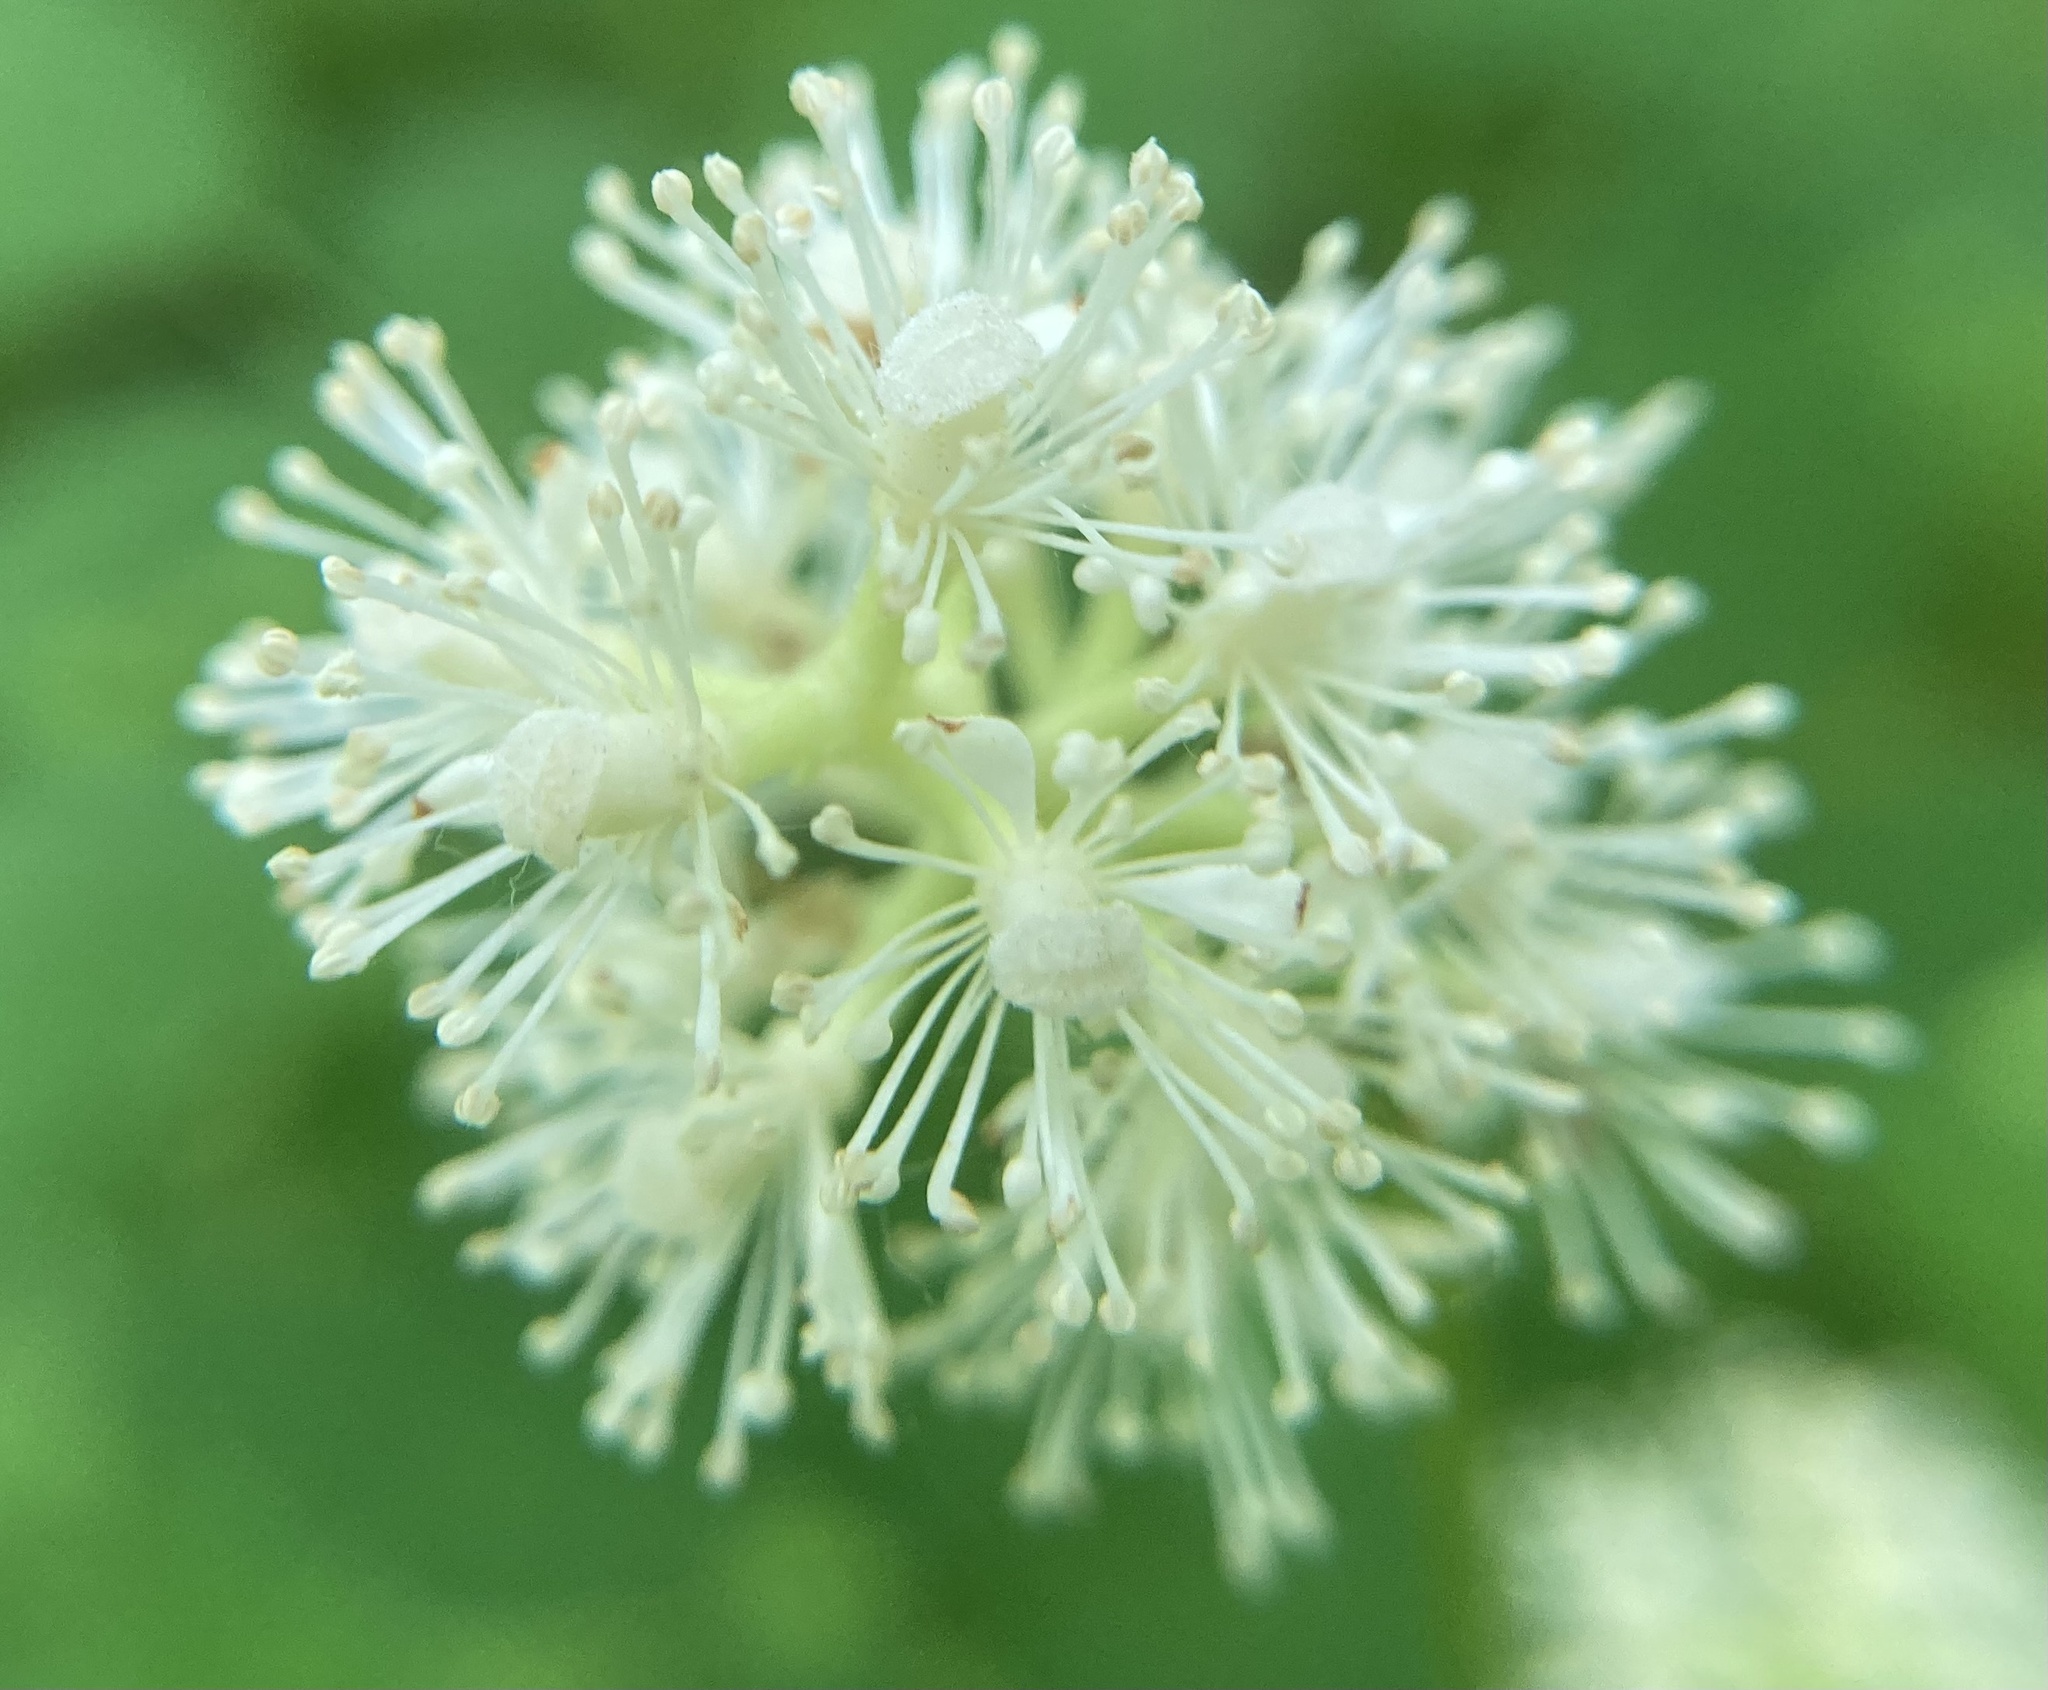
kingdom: Plantae
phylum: Tracheophyta
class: Magnoliopsida
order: Ranunculales
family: Ranunculaceae
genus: Actaea
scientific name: Actaea pachypoda
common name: Doll's-eyes
